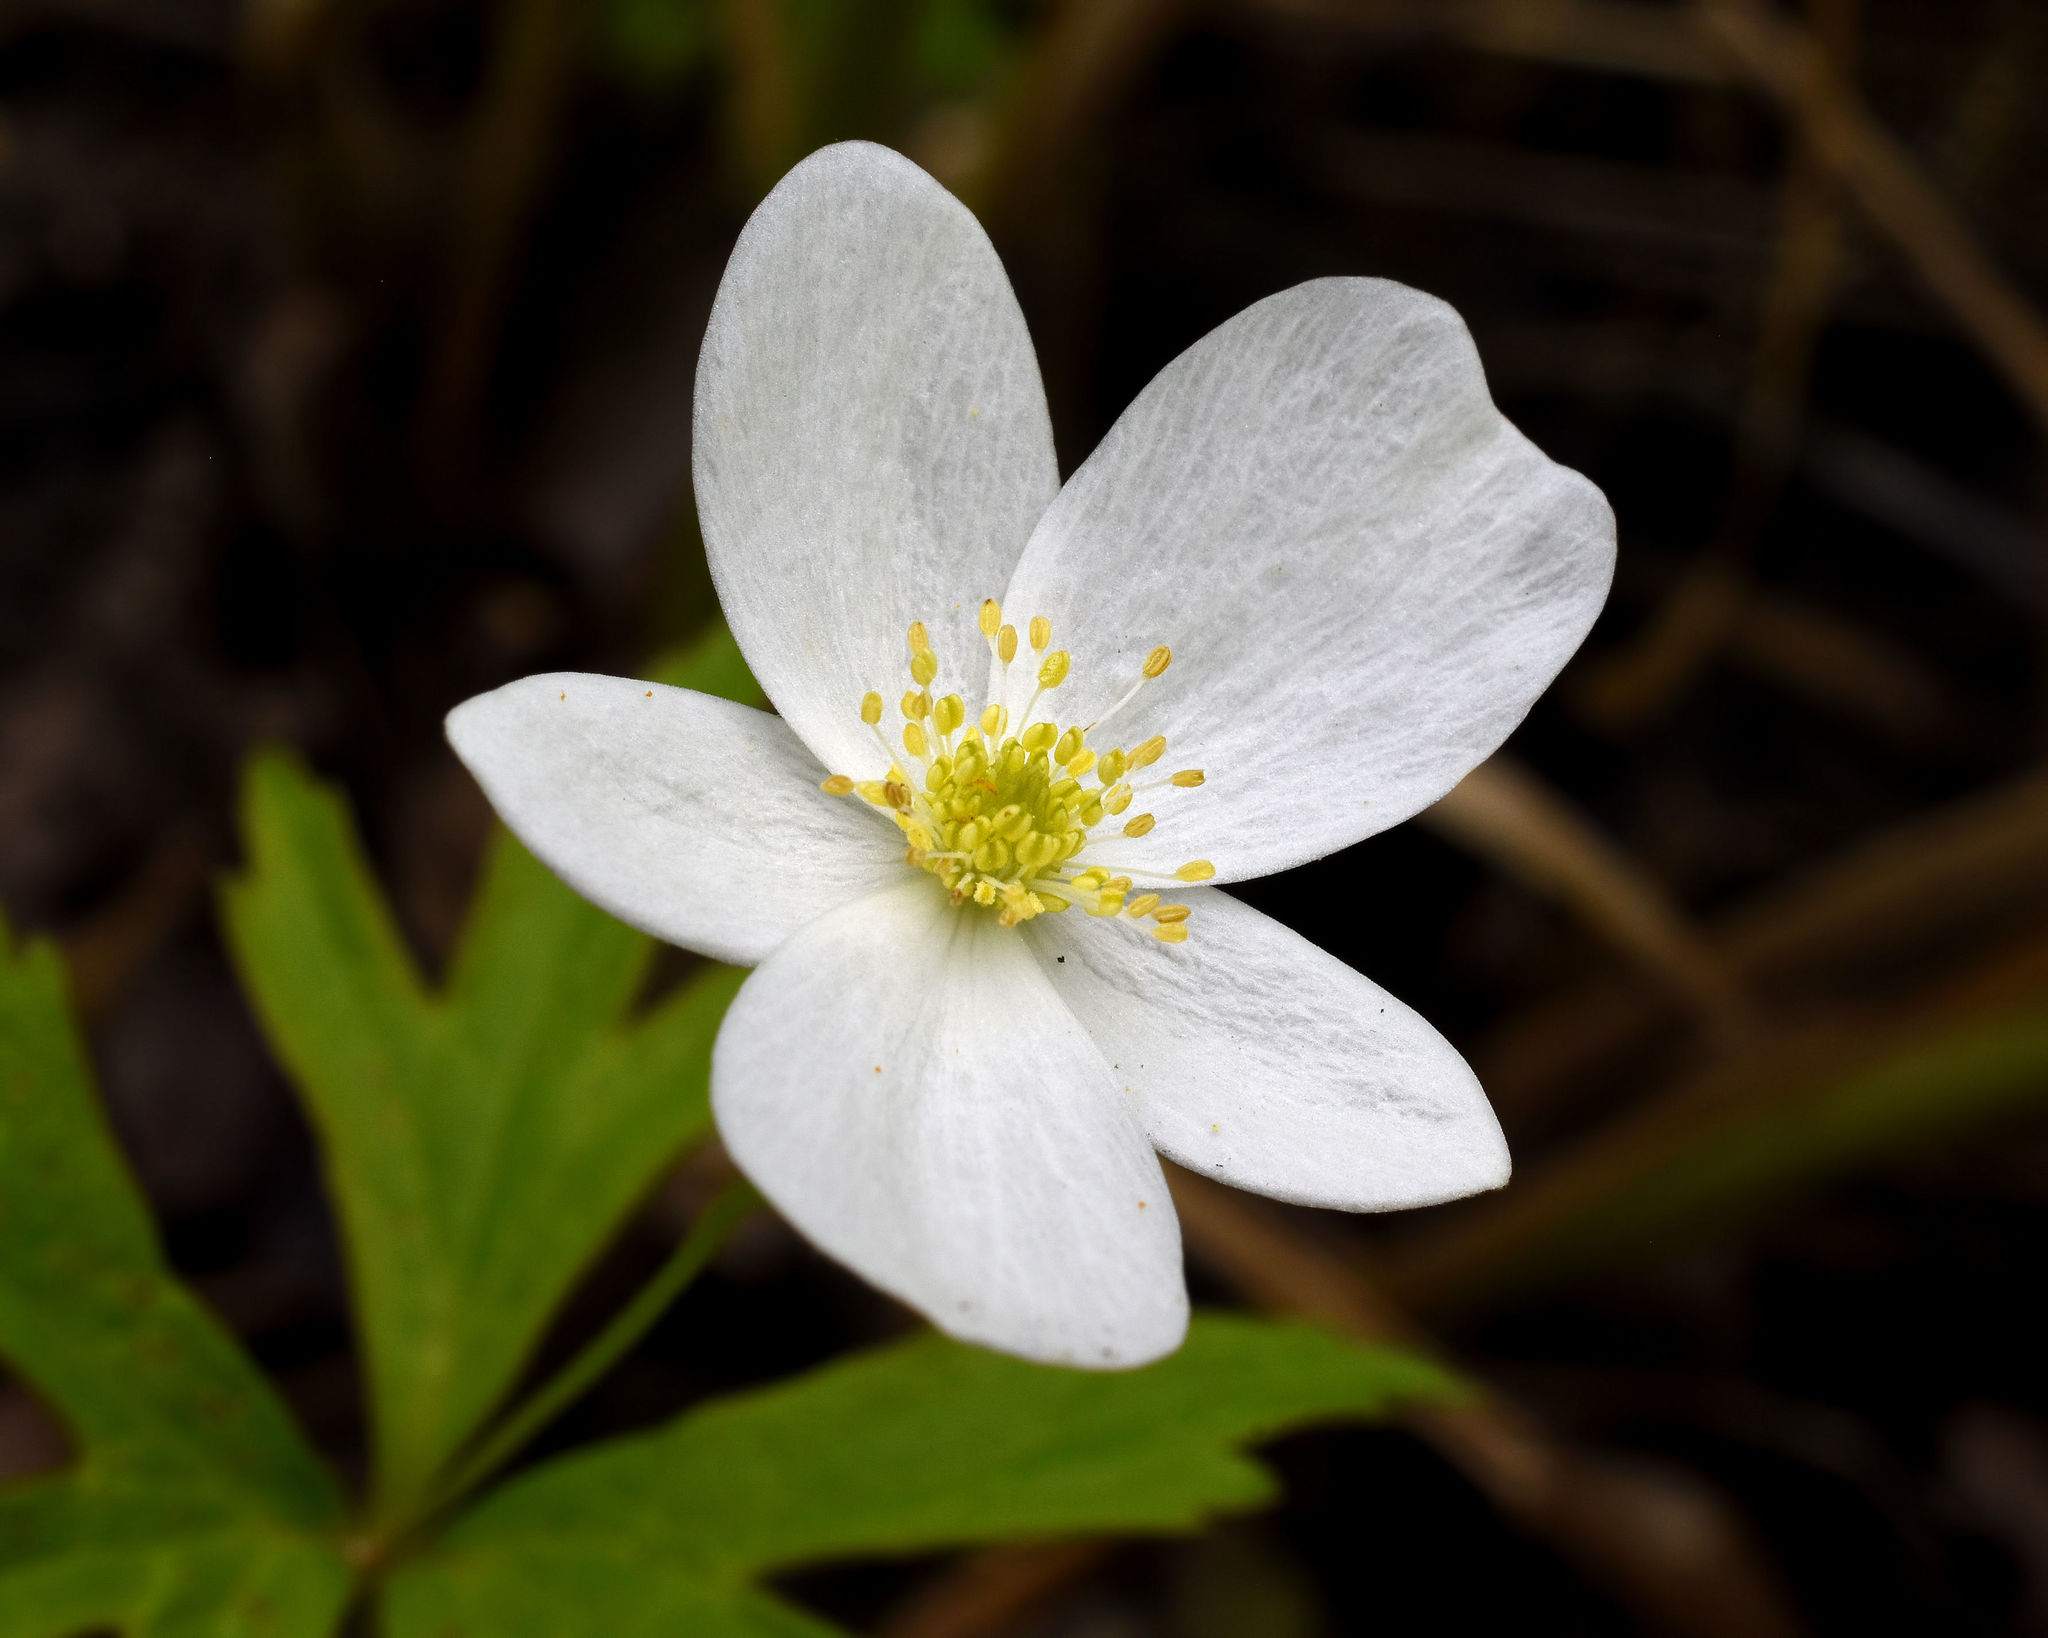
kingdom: Plantae
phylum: Tracheophyta
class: Magnoliopsida
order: Ranunculales
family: Ranunculaceae
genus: Anemonastrum
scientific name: Anemonastrum canadense
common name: Canada anemone
